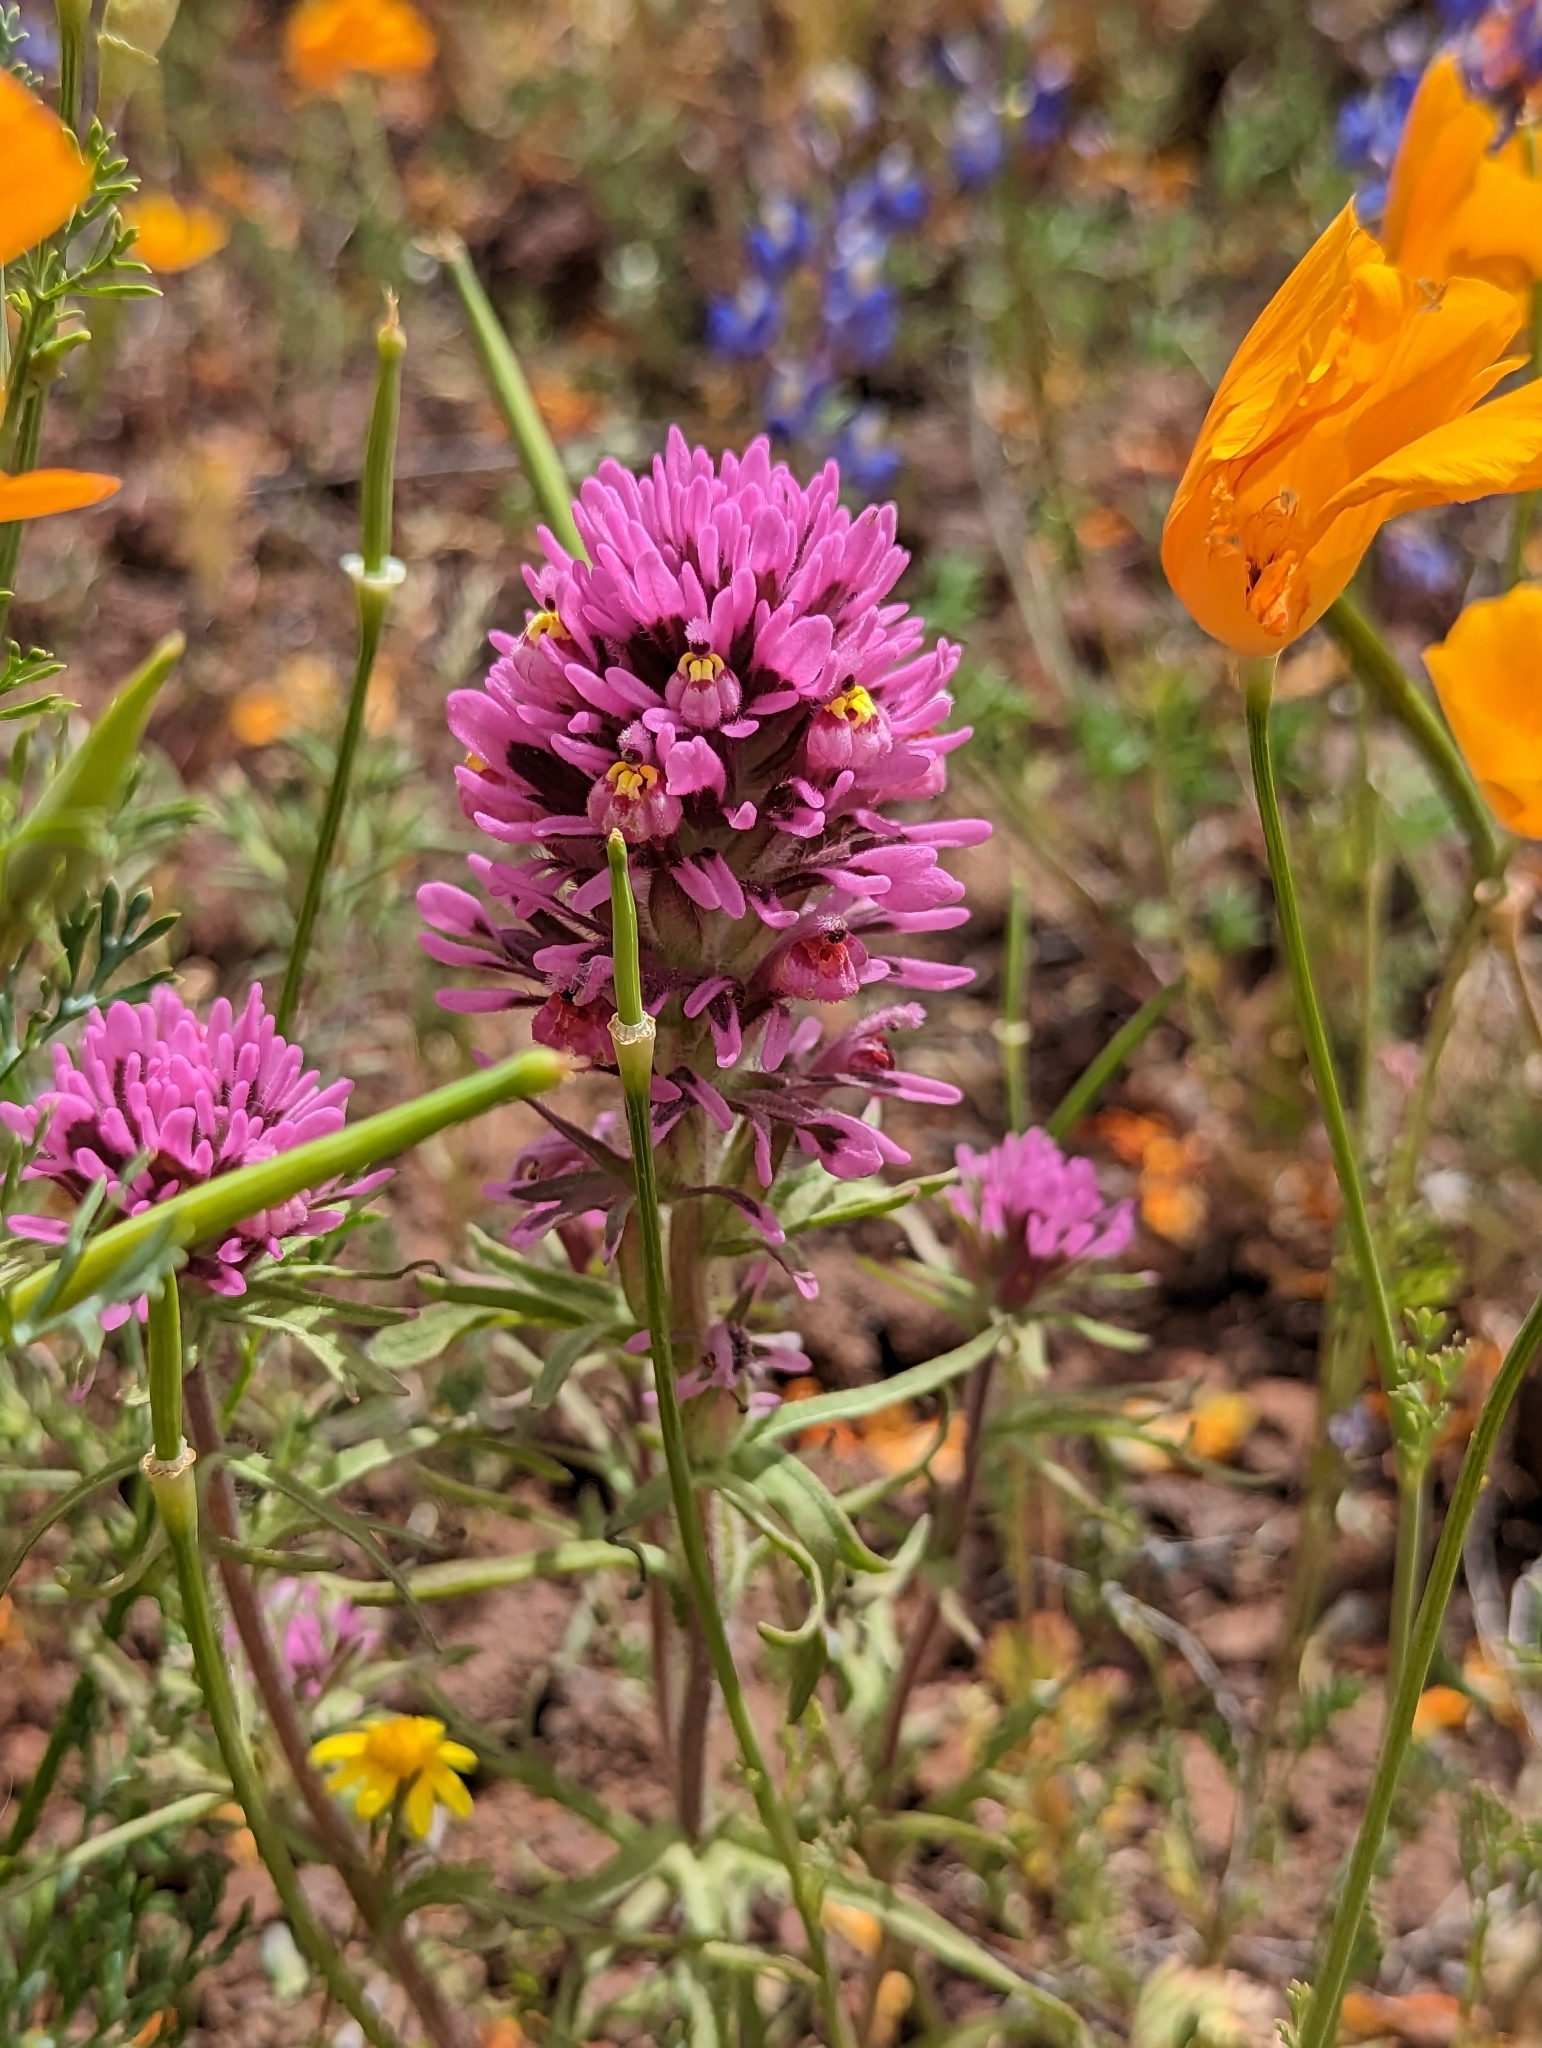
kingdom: Plantae
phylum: Tracheophyta
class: Magnoliopsida
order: Lamiales
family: Orobanchaceae
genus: Castilleja
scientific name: Castilleja exserta
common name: Purple owl-clover
